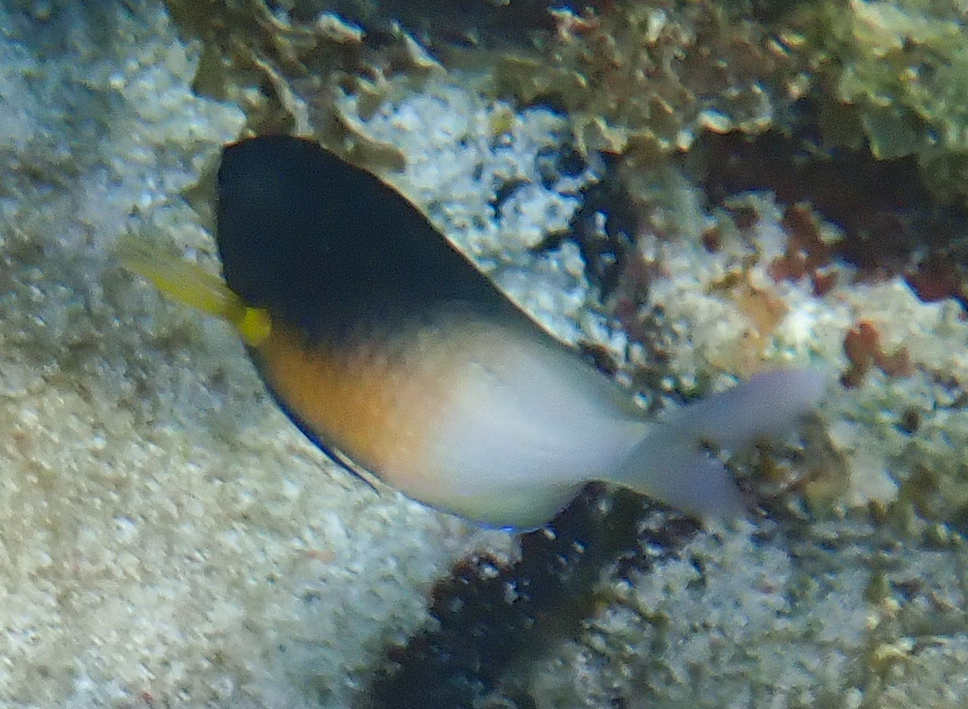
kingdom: Animalia
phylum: Chordata
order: Perciformes
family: Pomacentridae
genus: Stegastes
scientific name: Stegastes partitus
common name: Bicolor damselfish
